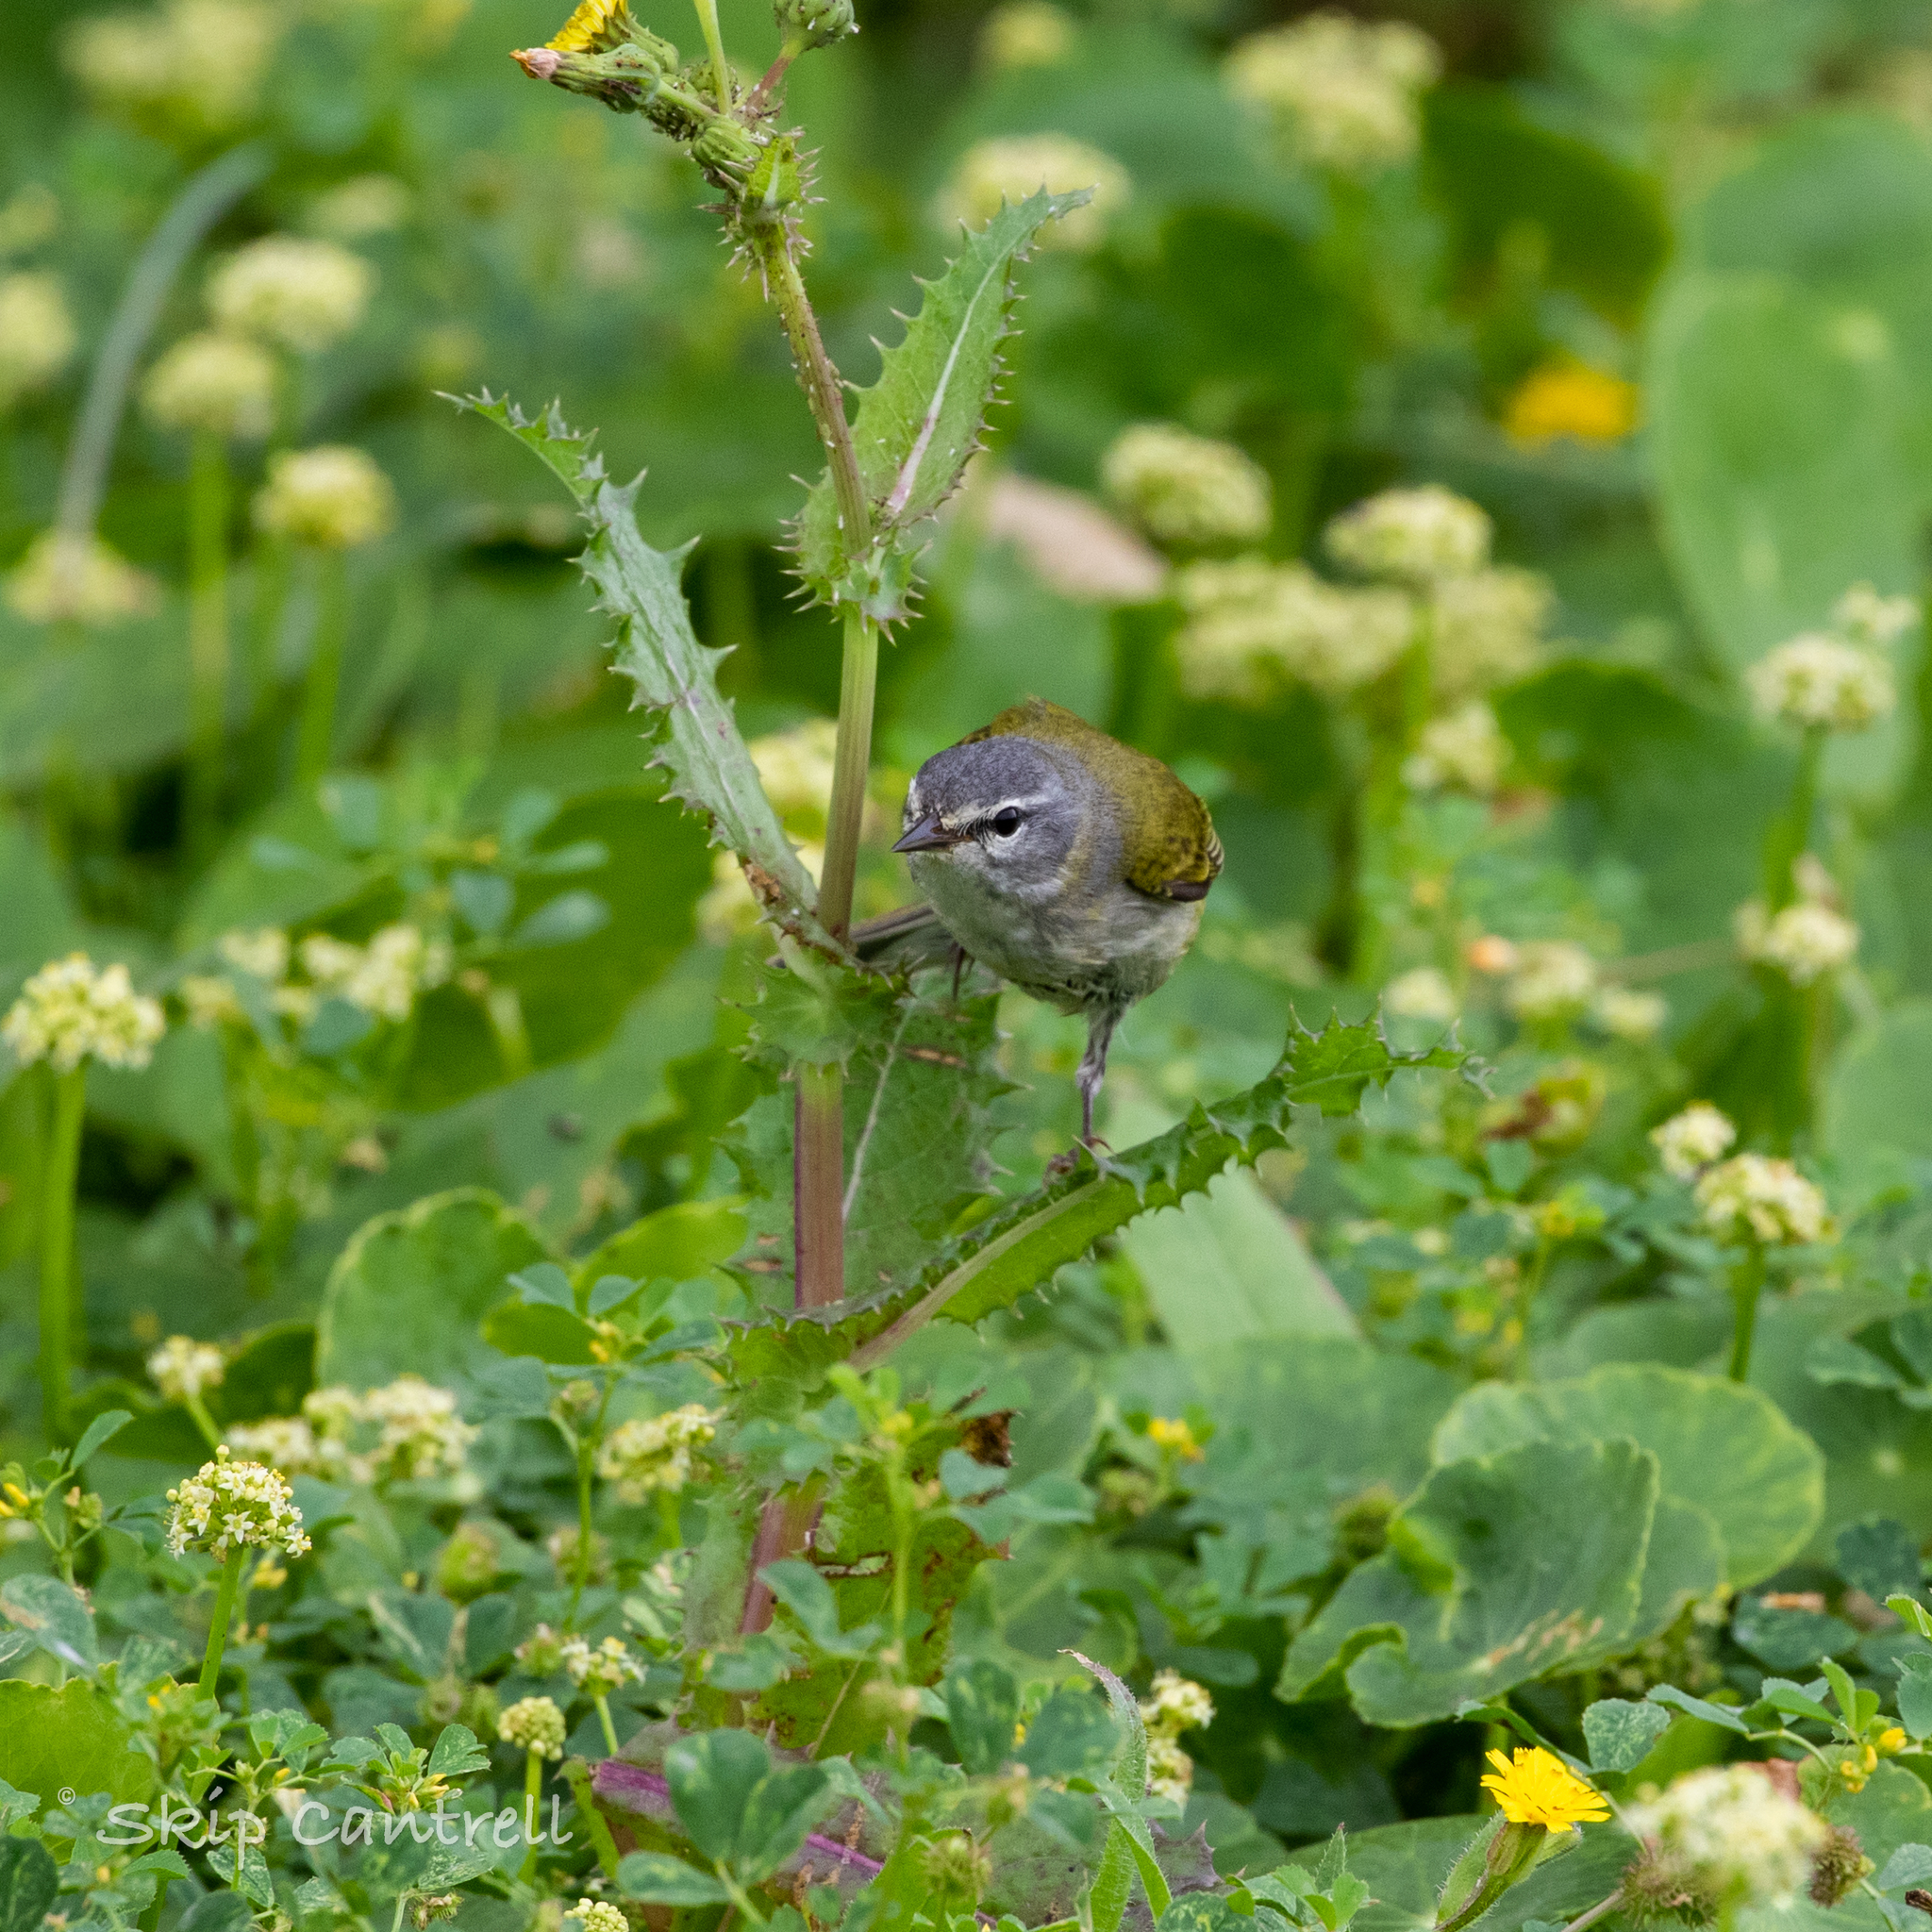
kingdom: Animalia
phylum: Chordata
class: Aves
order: Passeriformes
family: Parulidae
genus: Leiothlypis
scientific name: Leiothlypis peregrina
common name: Tennessee warbler
